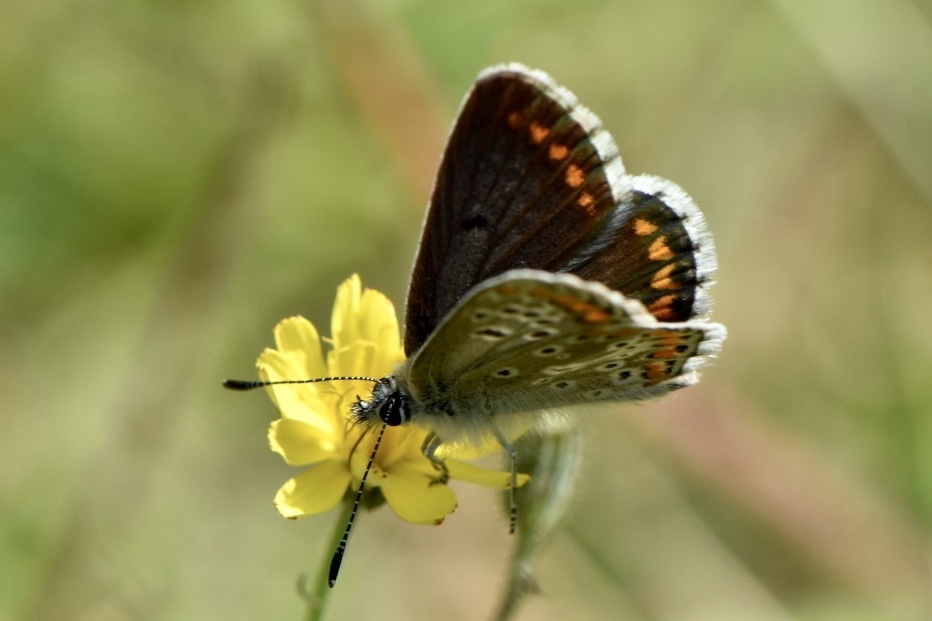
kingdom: Animalia
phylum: Arthropoda
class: Insecta
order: Lepidoptera
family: Lycaenidae
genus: Aricia
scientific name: Aricia agestis
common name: Brown argus
